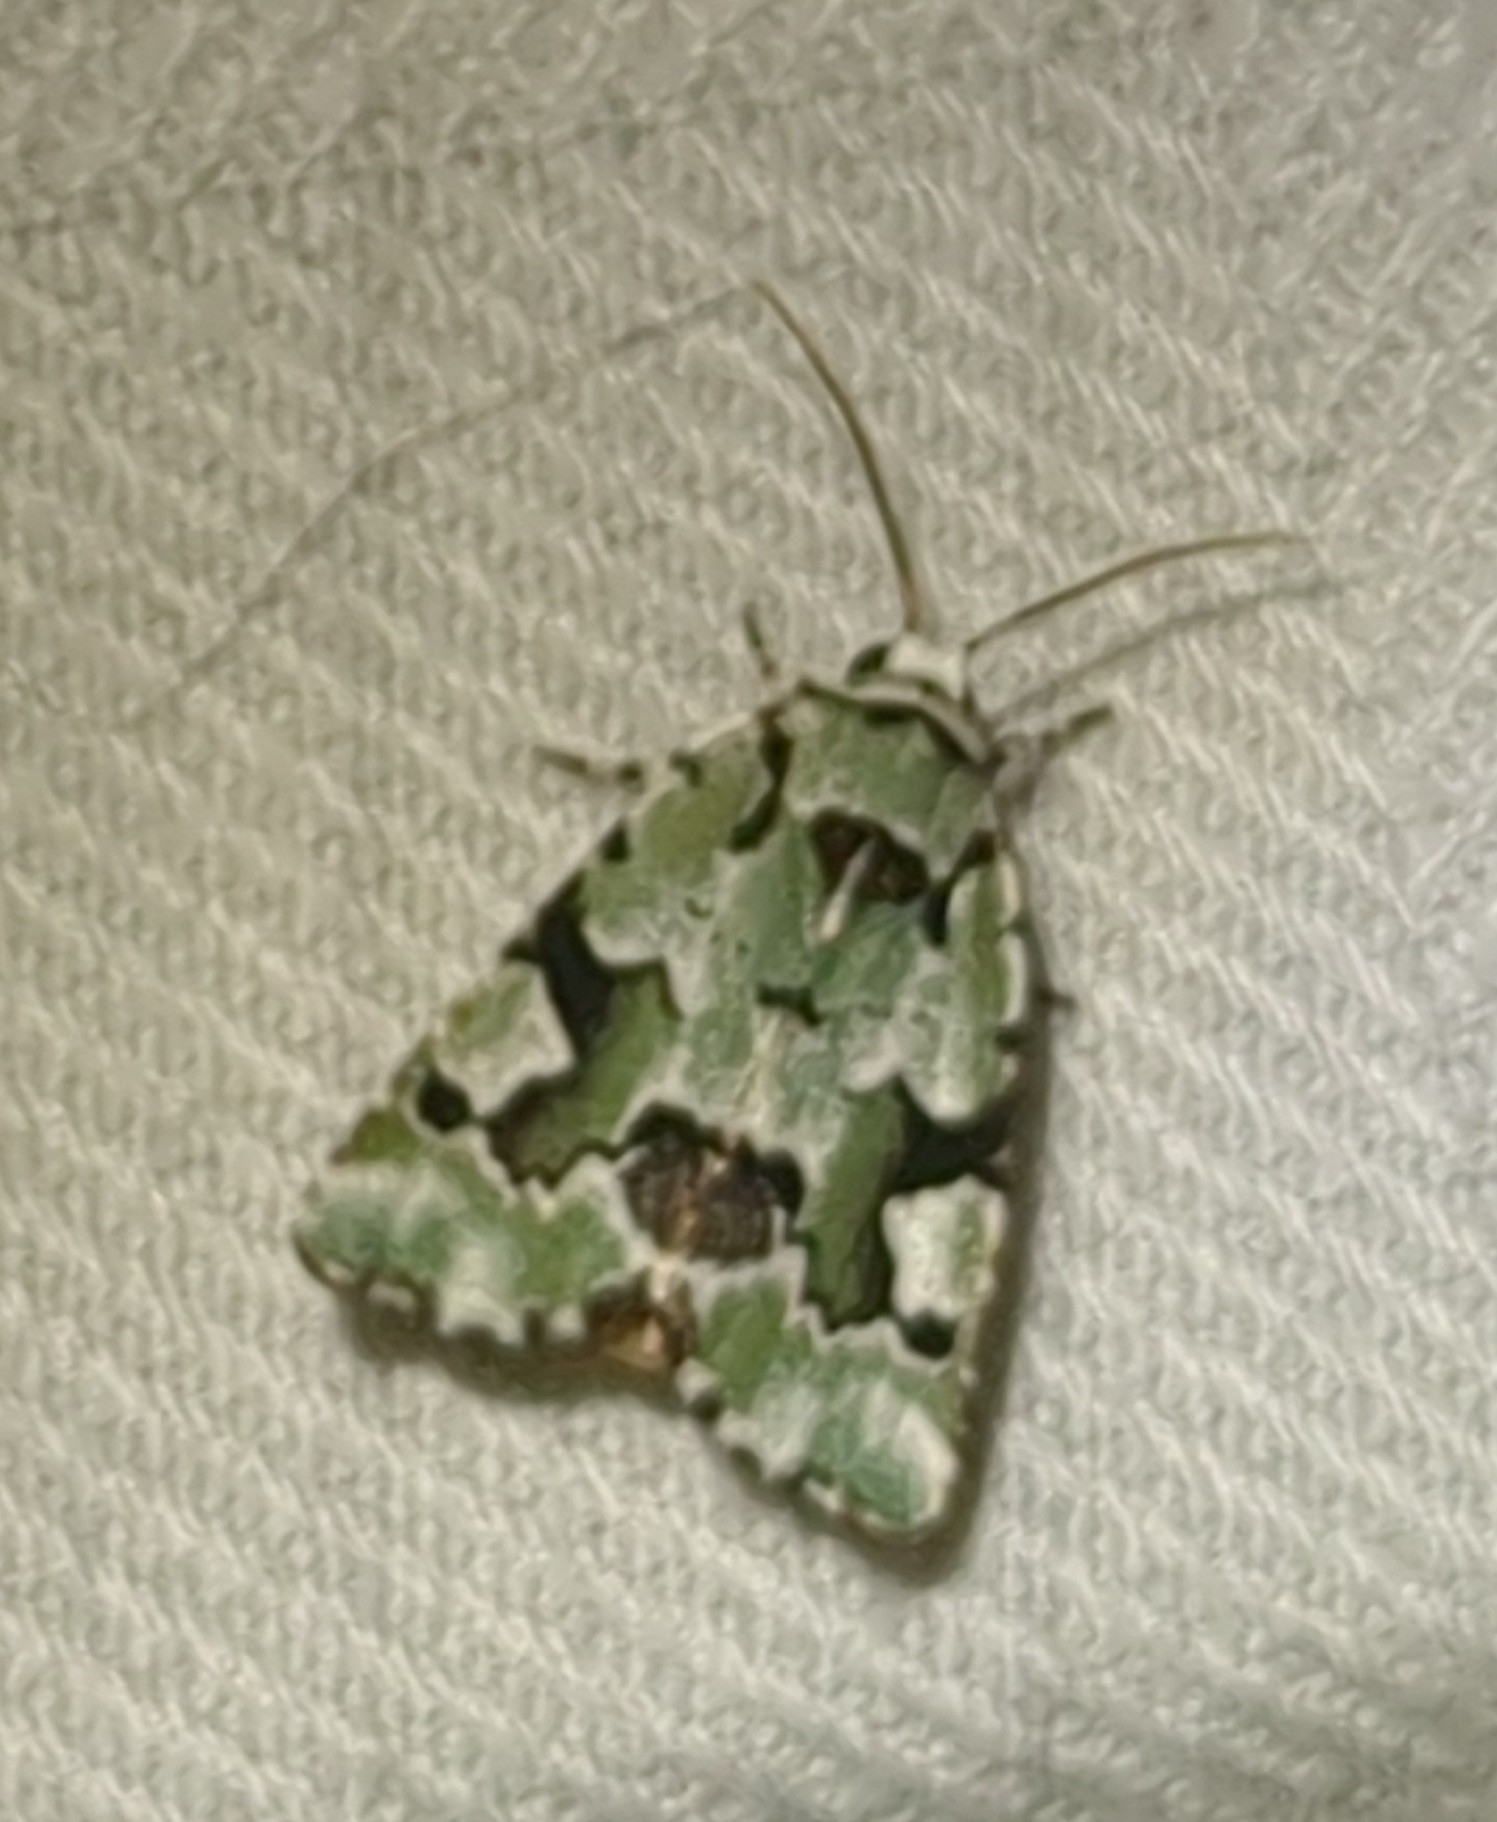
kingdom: Animalia
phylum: Arthropoda
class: Insecta
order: Lepidoptera
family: Noctuidae
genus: Emarginea
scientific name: Emarginea percara
